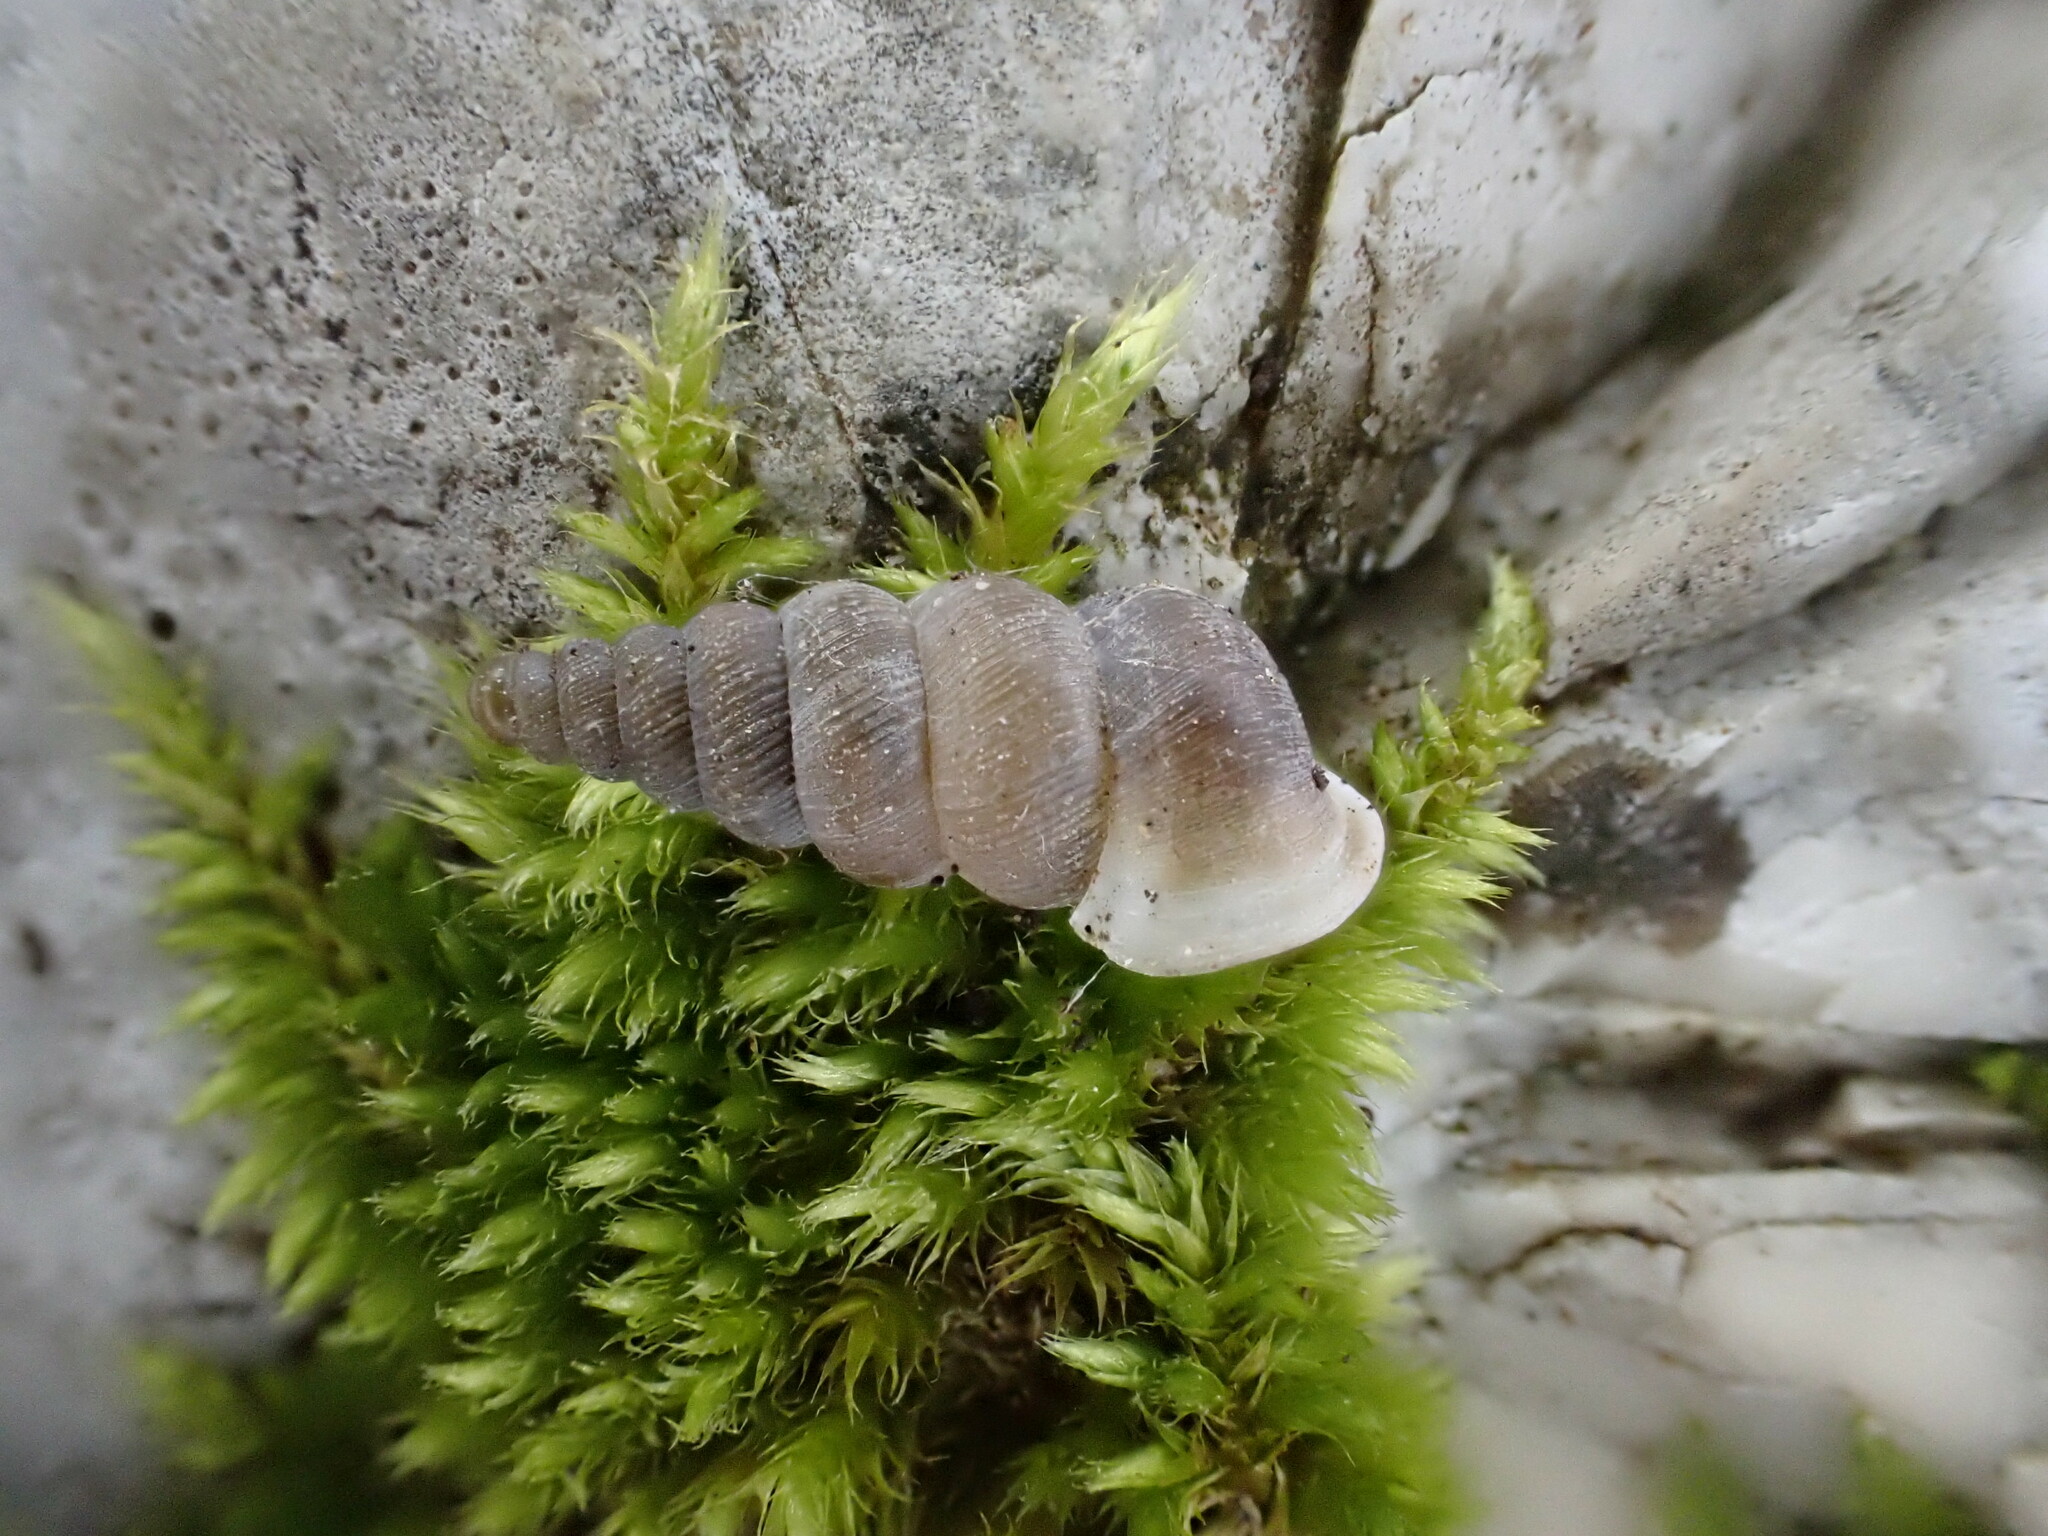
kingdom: Animalia
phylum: Mollusca
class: Gastropoda
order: Architaenioglossa
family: Cochlostomatidae
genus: Cochlostoma
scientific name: Cochlostoma patulum
